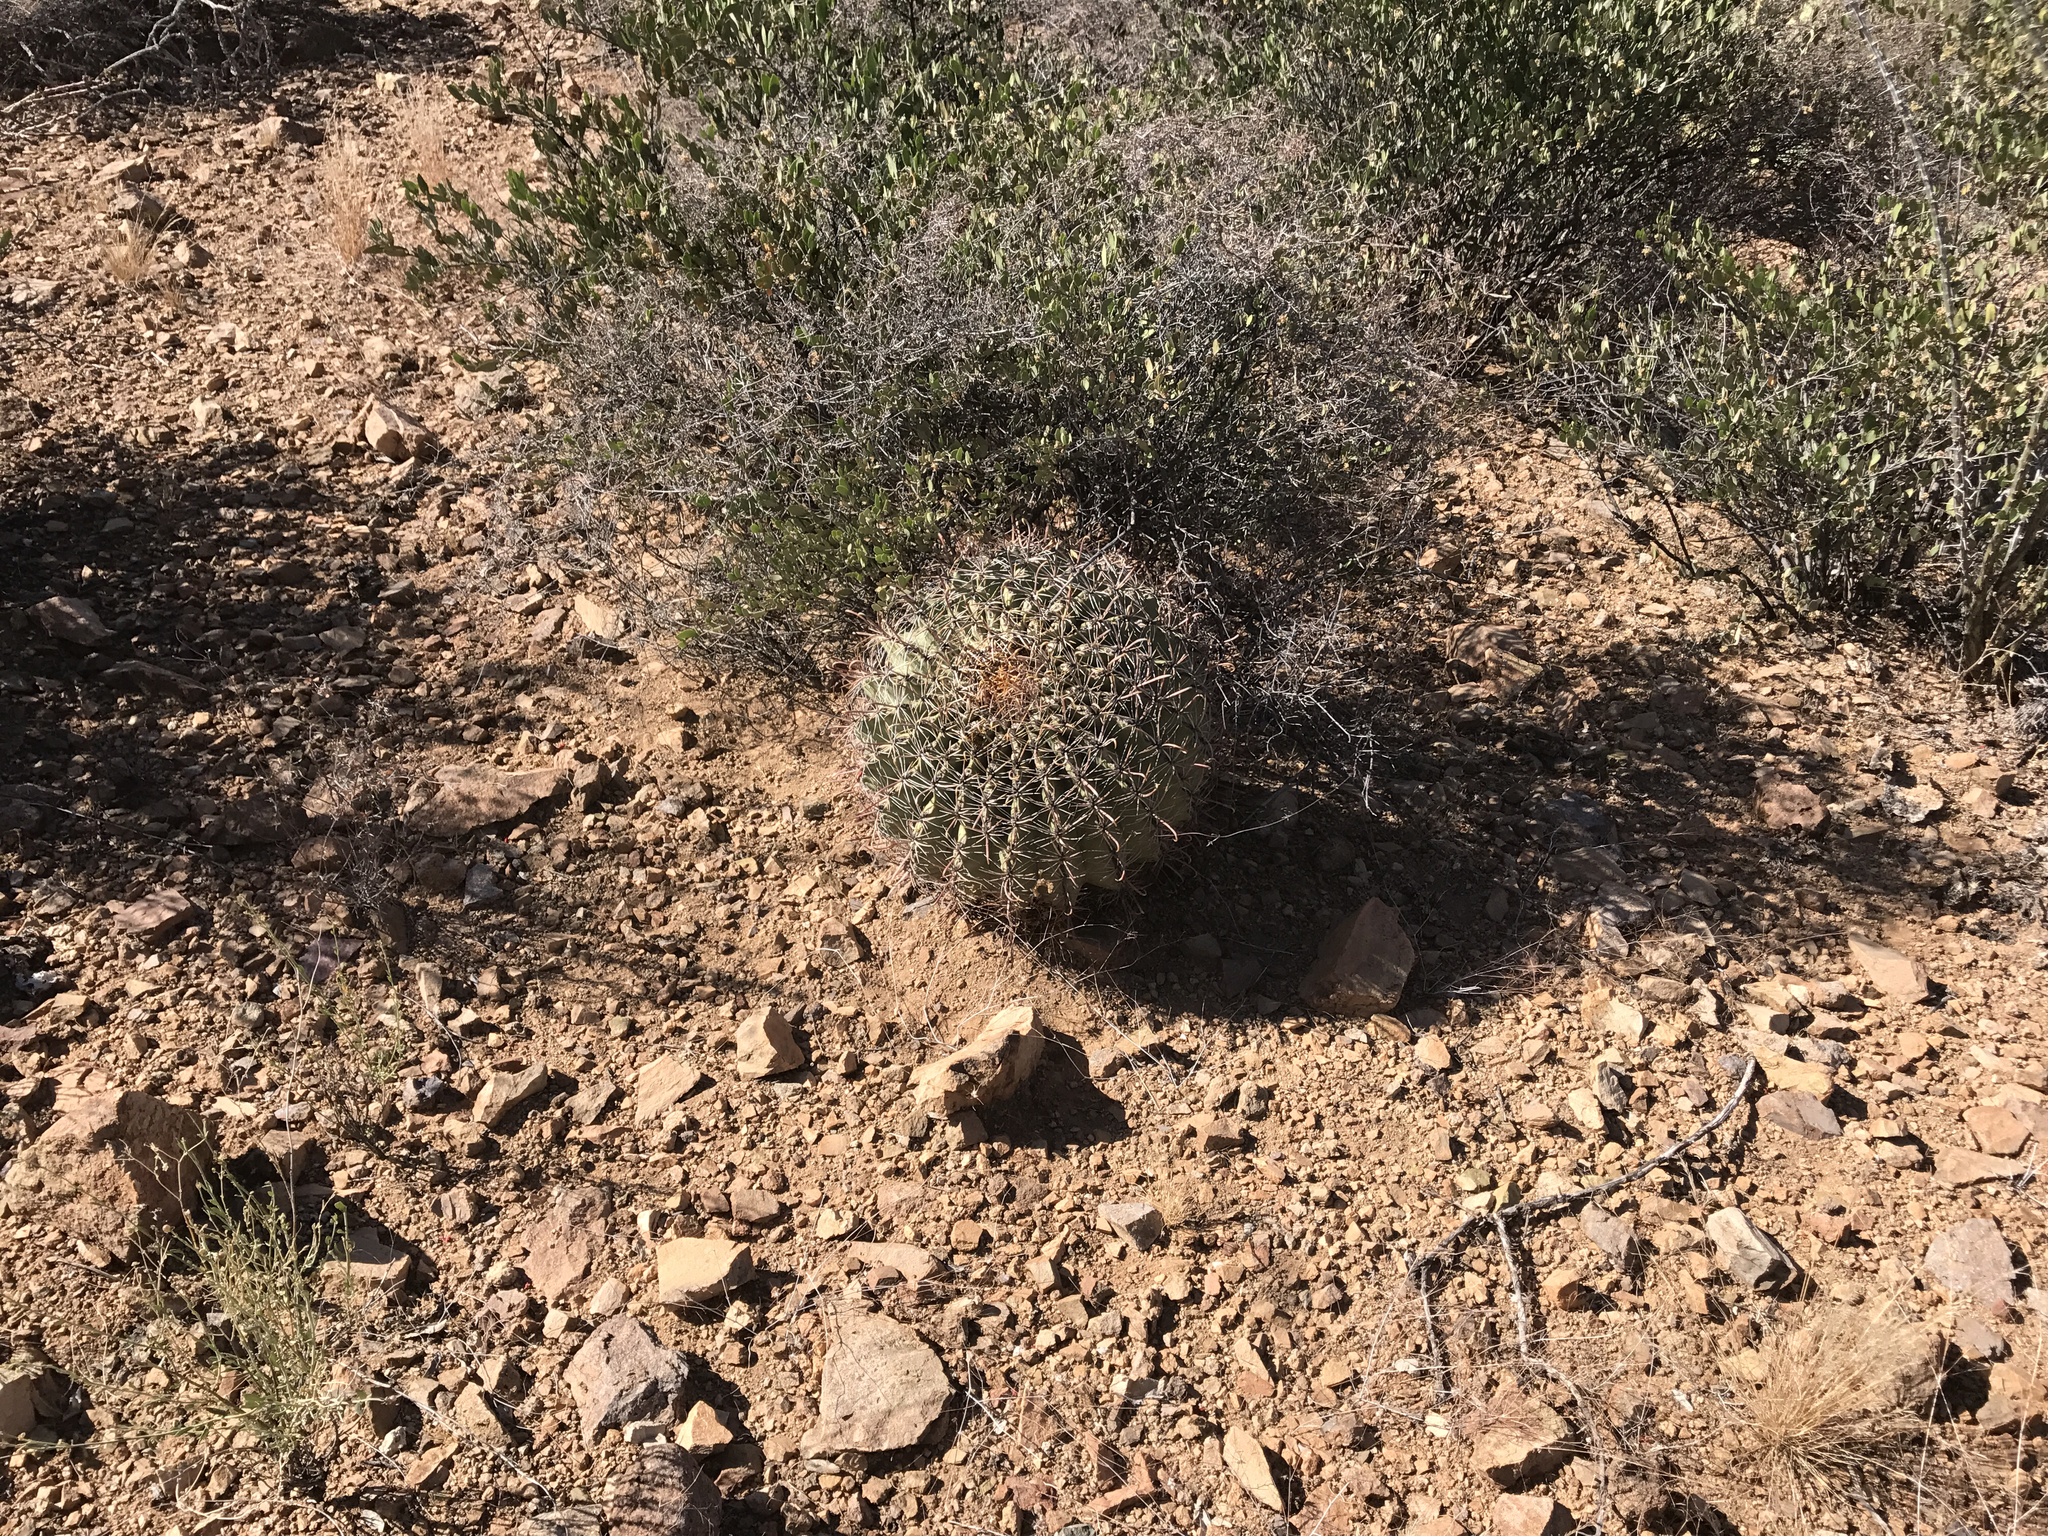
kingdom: Plantae
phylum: Tracheophyta
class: Magnoliopsida
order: Caryophyllales
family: Cactaceae
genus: Ferocactus
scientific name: Ferocactus wislizeni
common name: Candy barrel cactus
